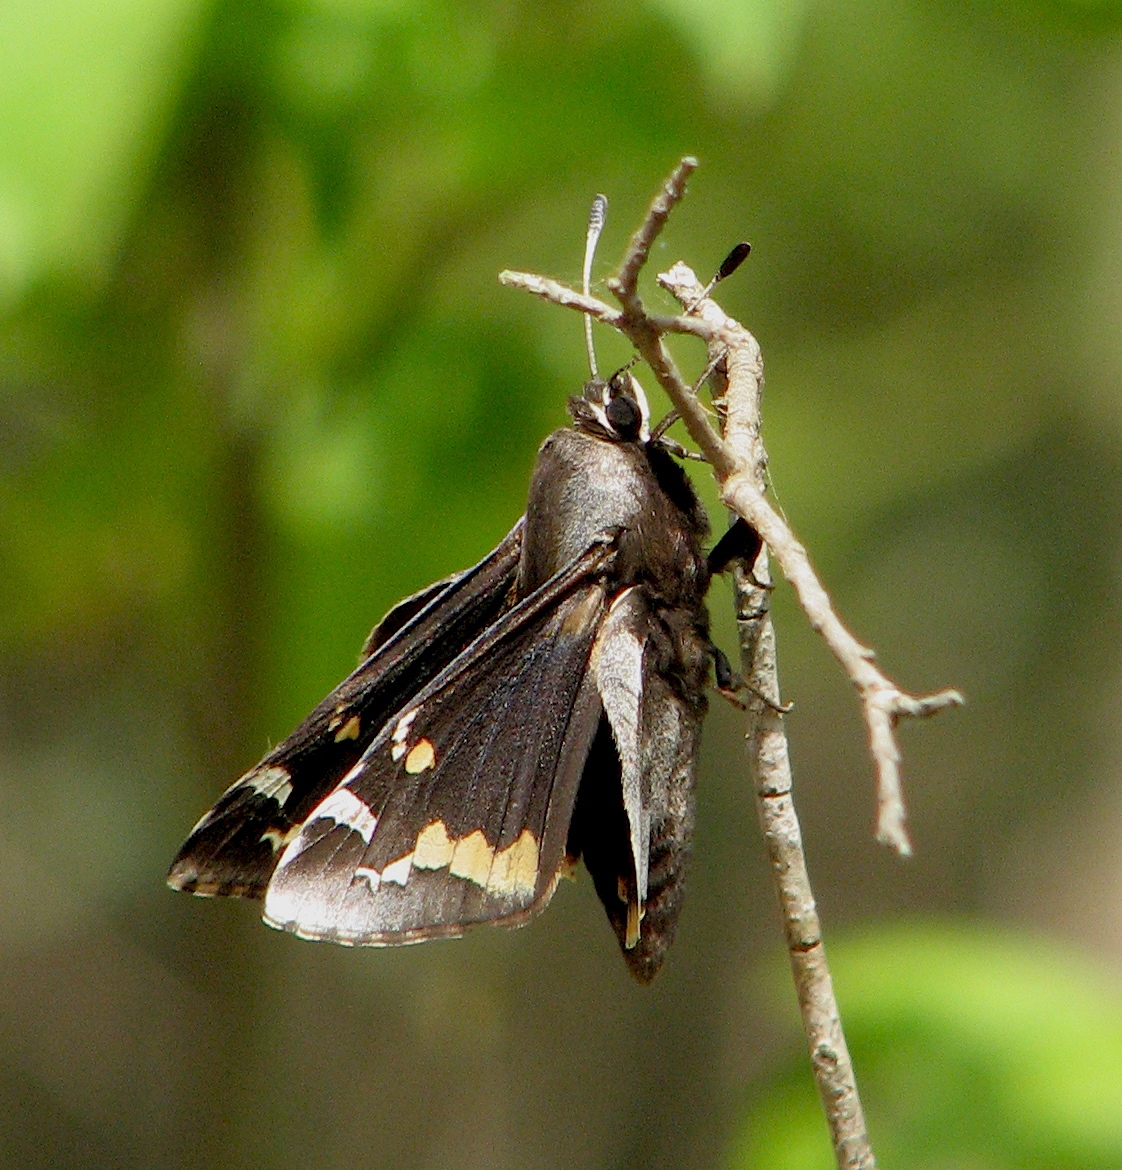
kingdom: Animalia
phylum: Arthropoda
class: Insecta
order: Lepidoptera
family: Hesperiidae
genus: Megathymus
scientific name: Megathymus yuccae
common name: Yucca giant-skipper
